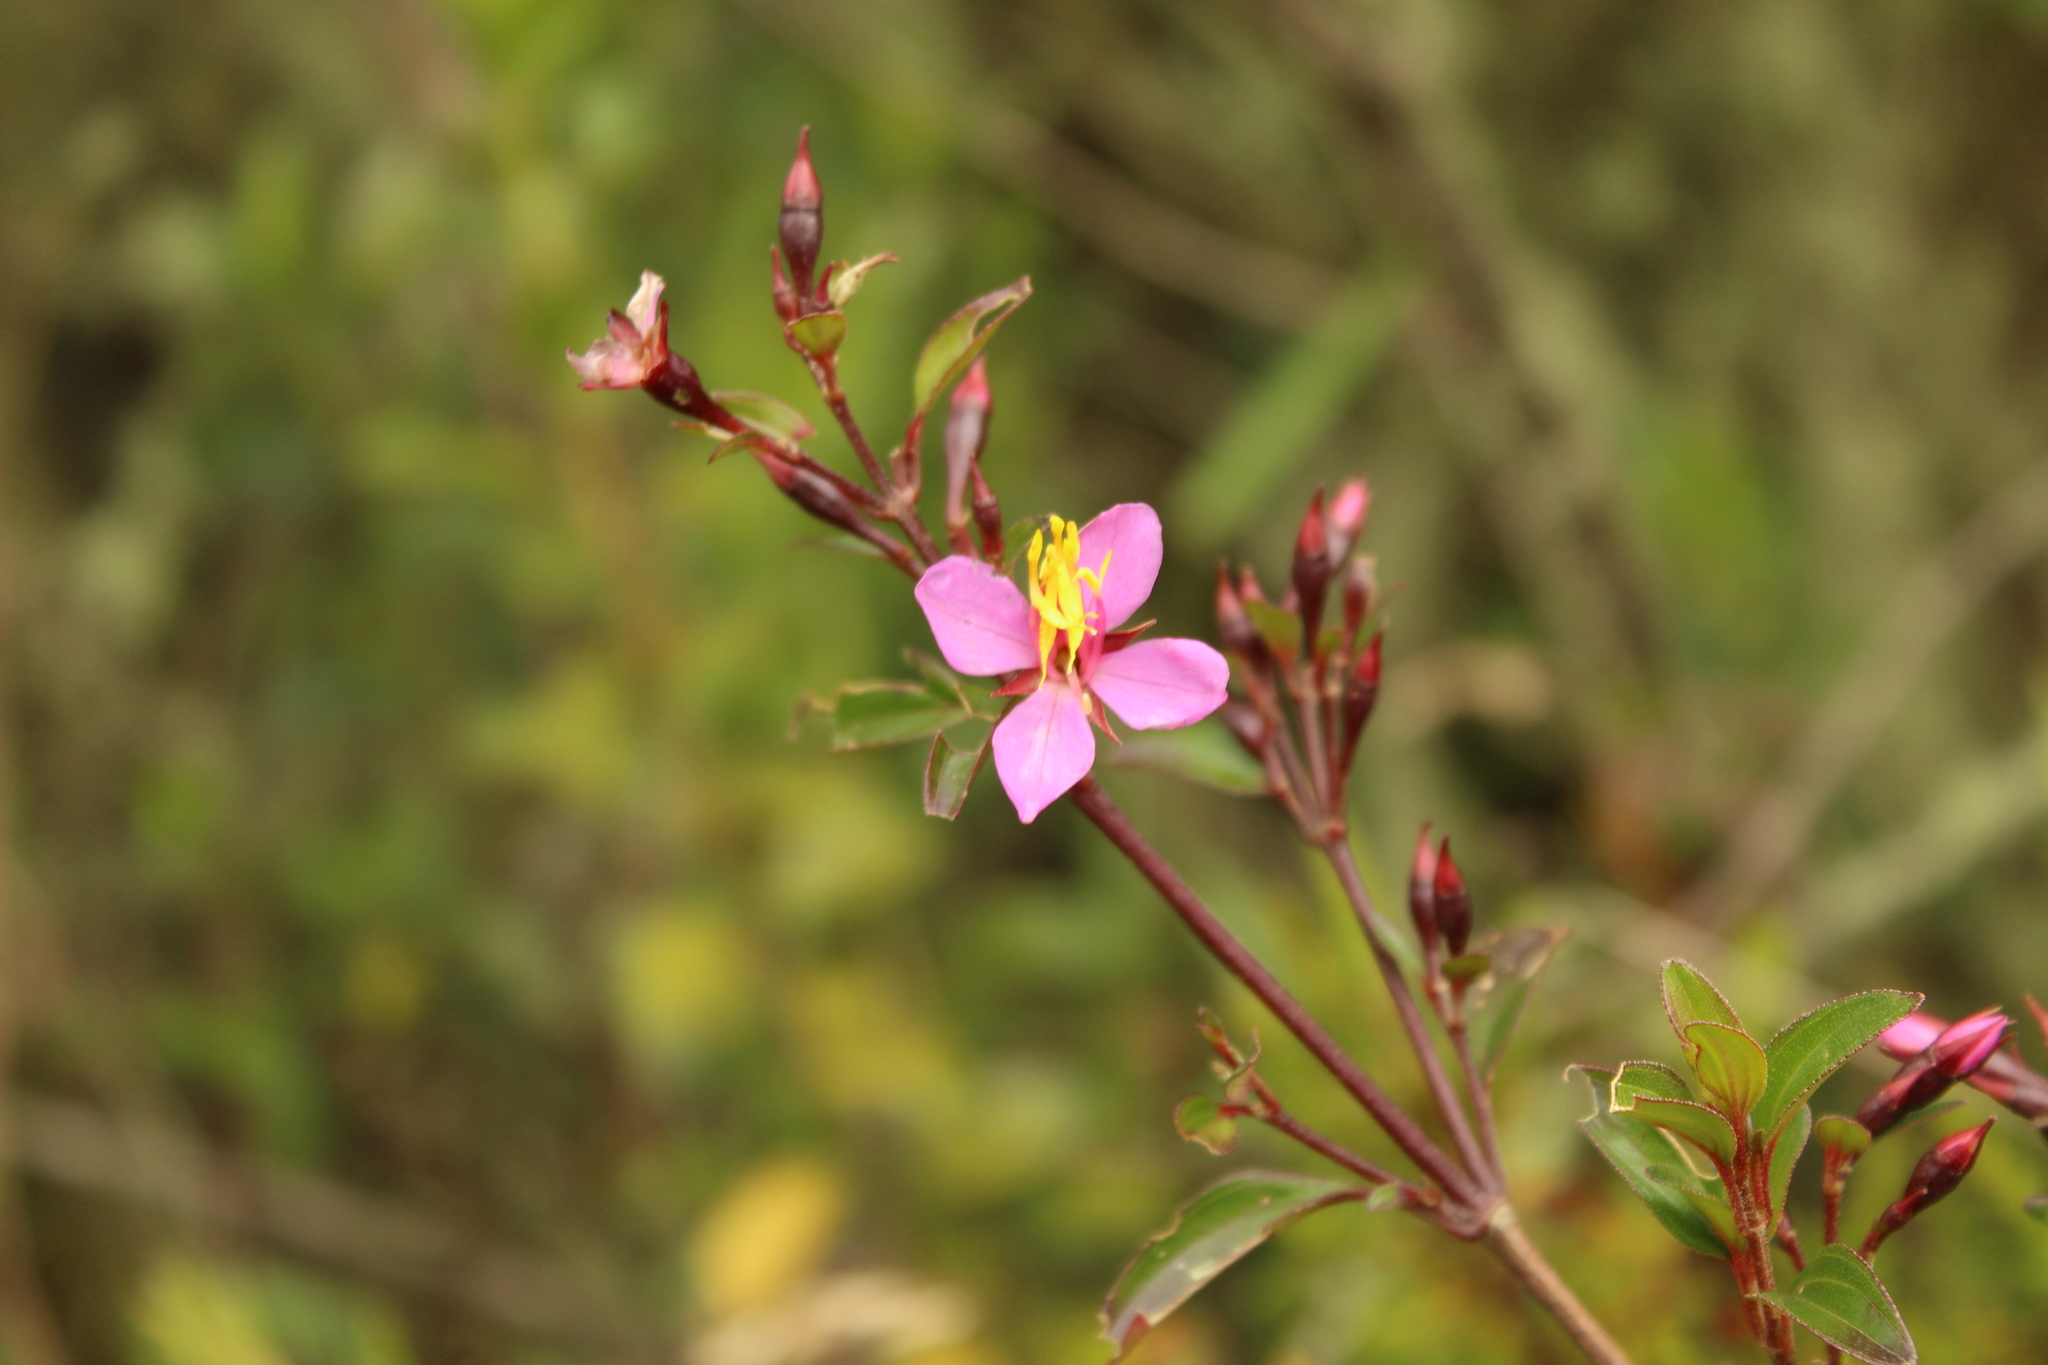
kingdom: Plantae
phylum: Tracheophyta
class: Magnoliopsida
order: Myrtales
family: Melastomataceae
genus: Monochaetum
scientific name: Monochaetum myrtoideum
